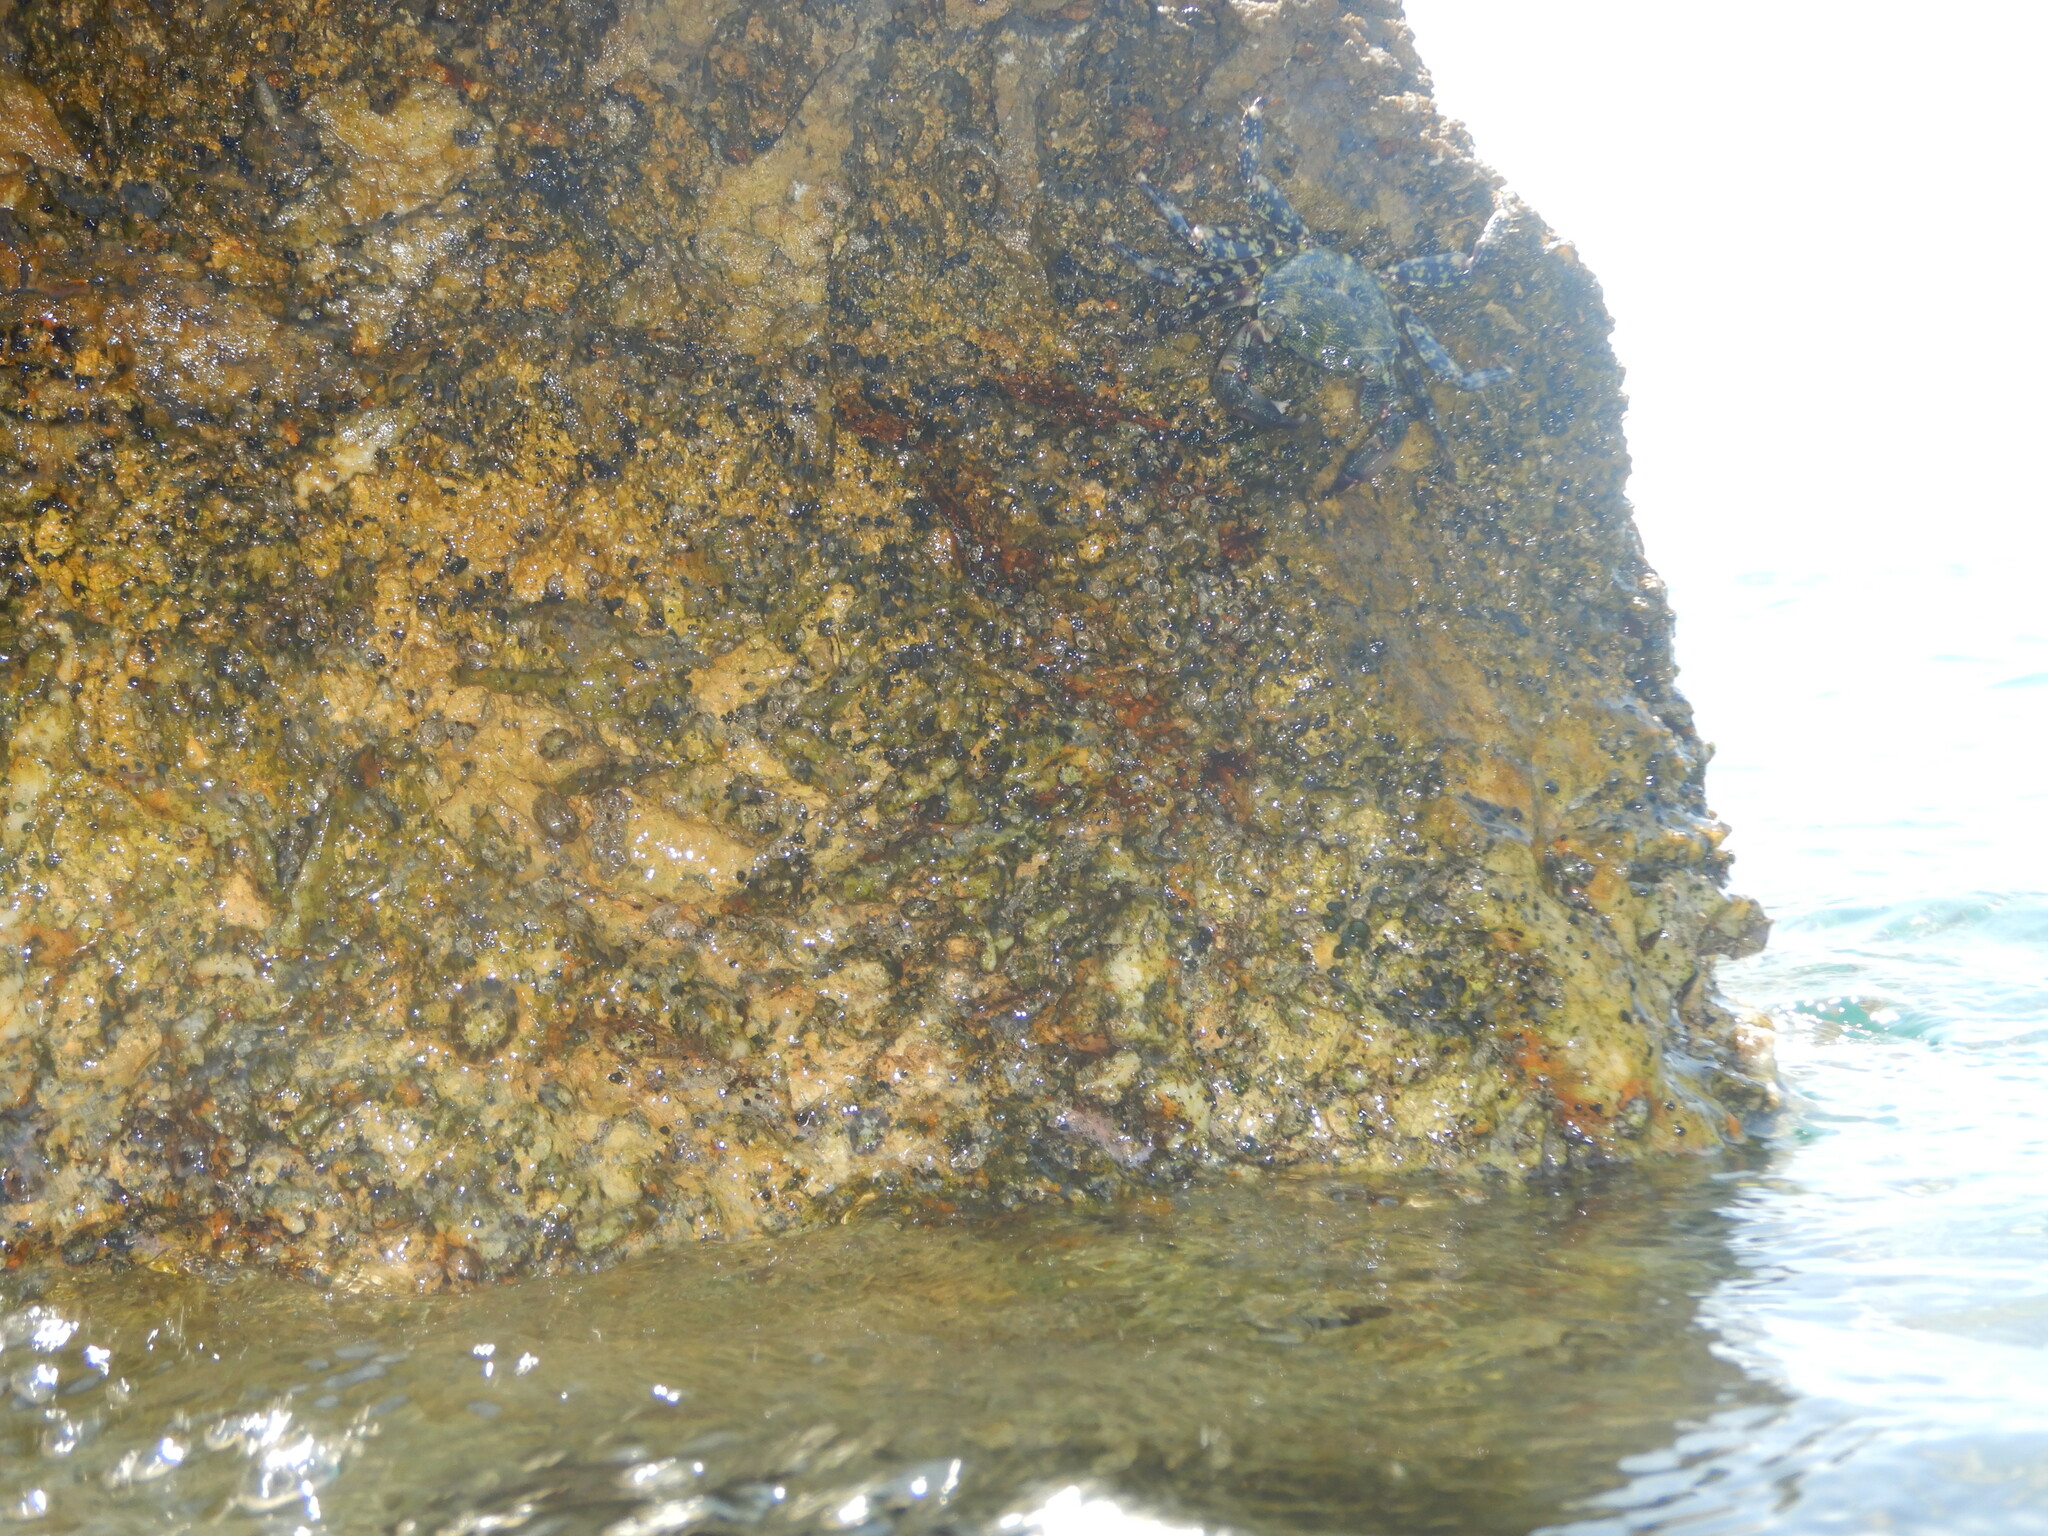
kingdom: Animalia
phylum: Arthropoda
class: Malacostraca
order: Decapoda
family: Grapsidae
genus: Pachygrapsus
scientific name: Pachygrapsus marmoratus
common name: Marbled rock crab
